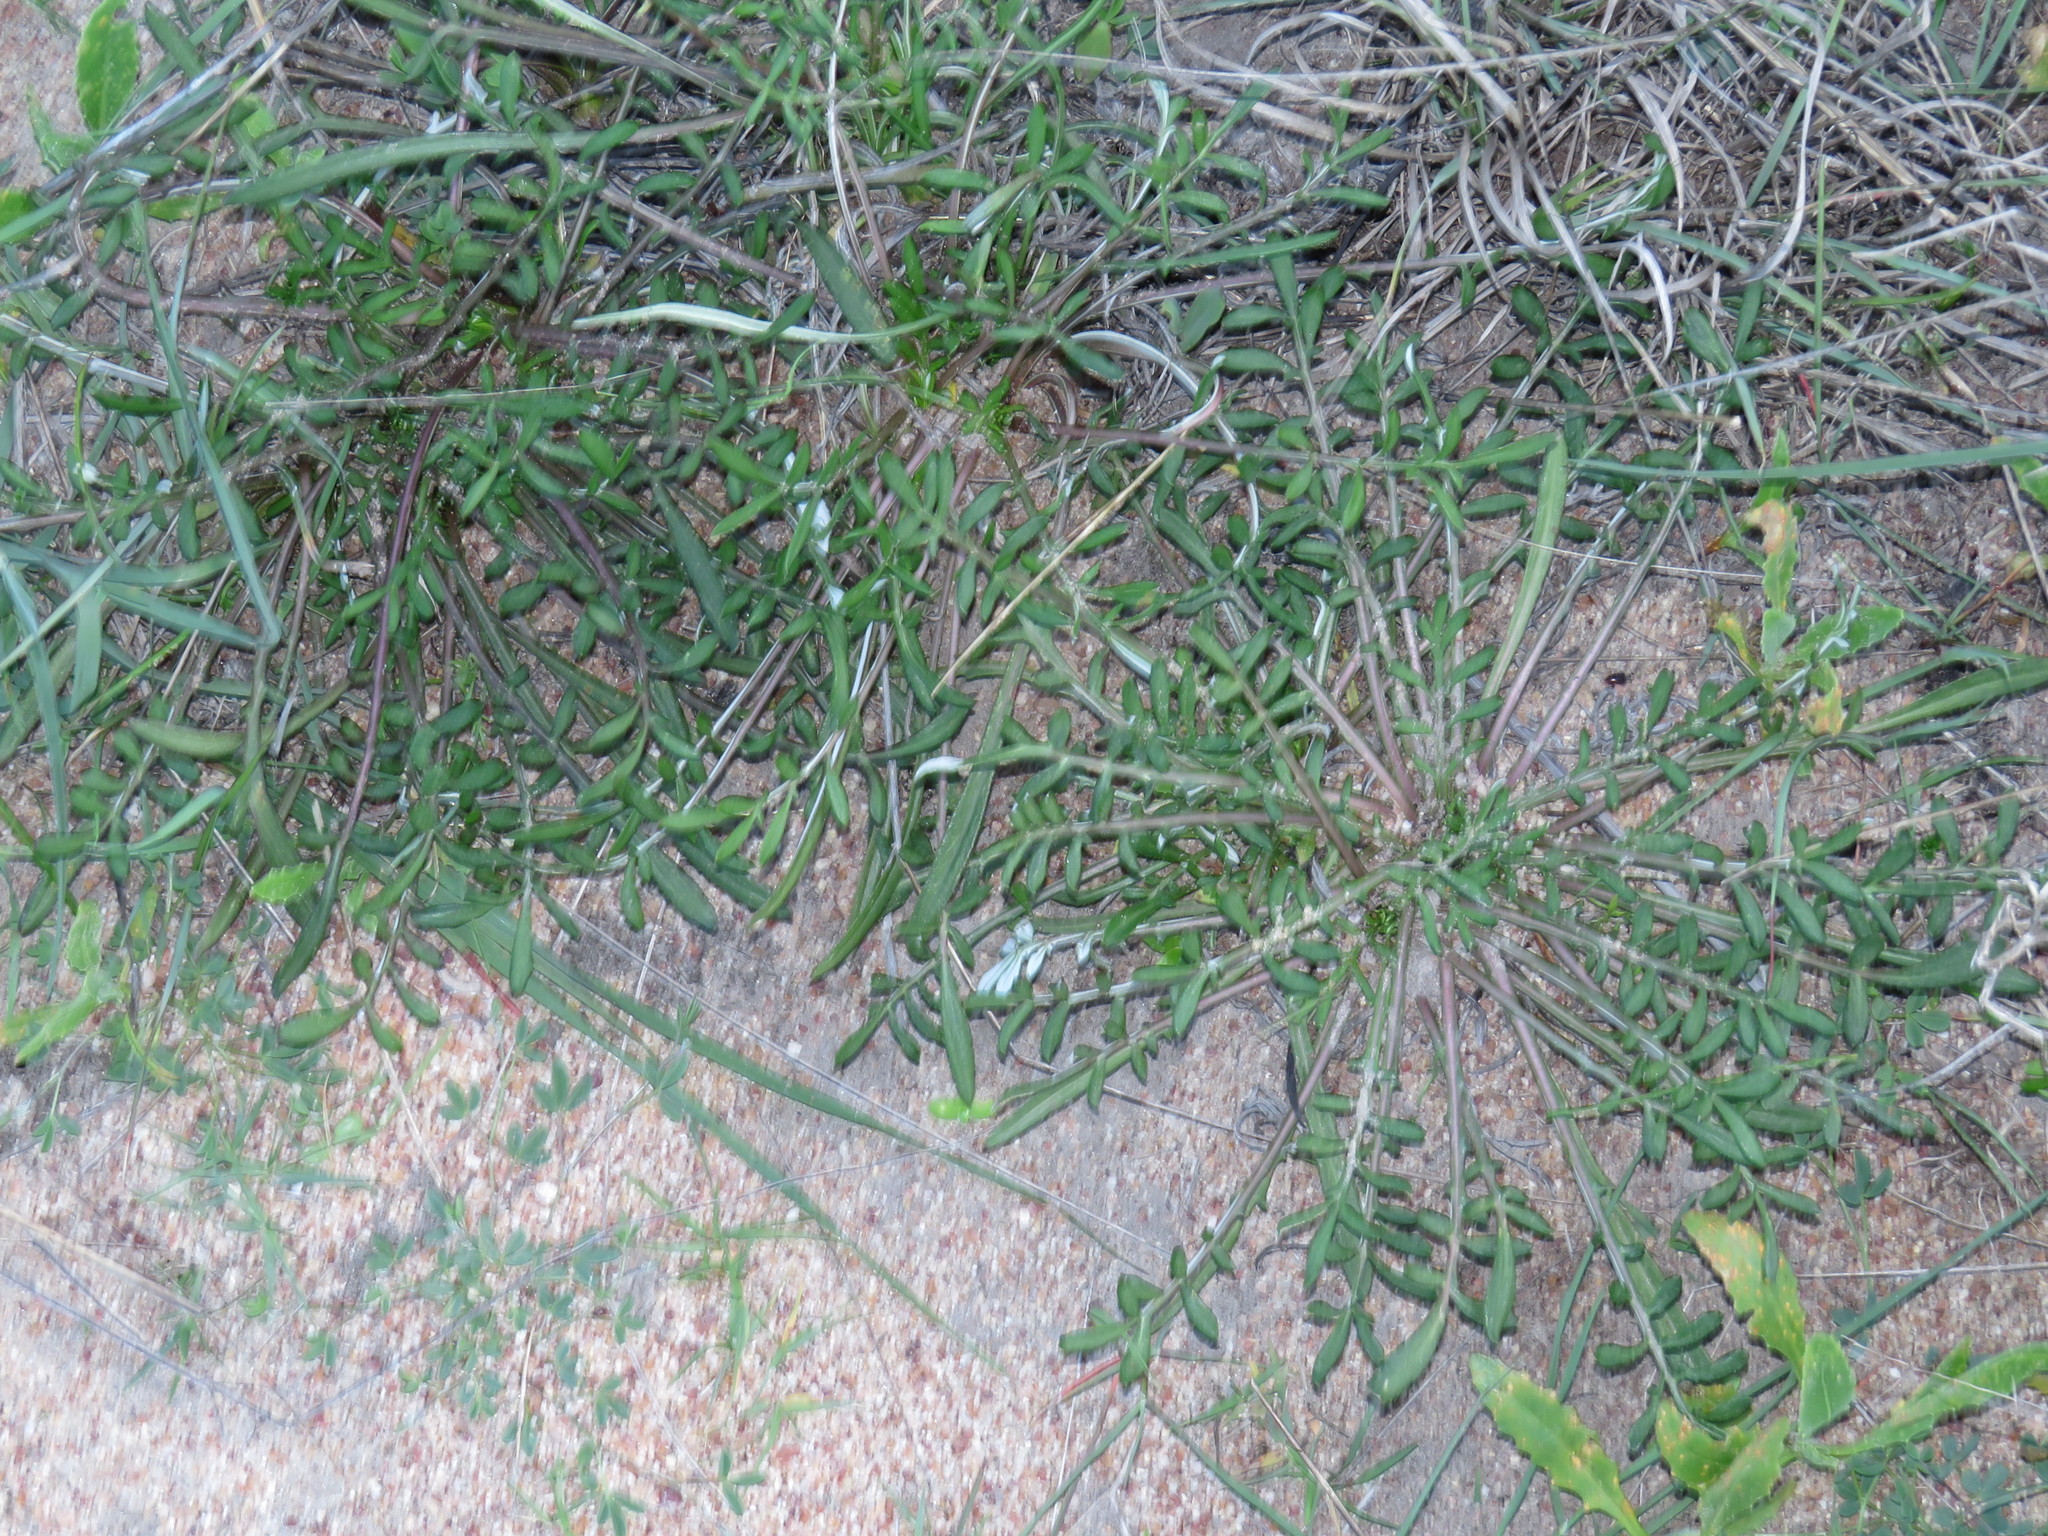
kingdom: Plantae
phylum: Tracheophyta
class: Magnoliopsida
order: Asterales
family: Asteraceae
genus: Gazania
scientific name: Gazania pectinata
